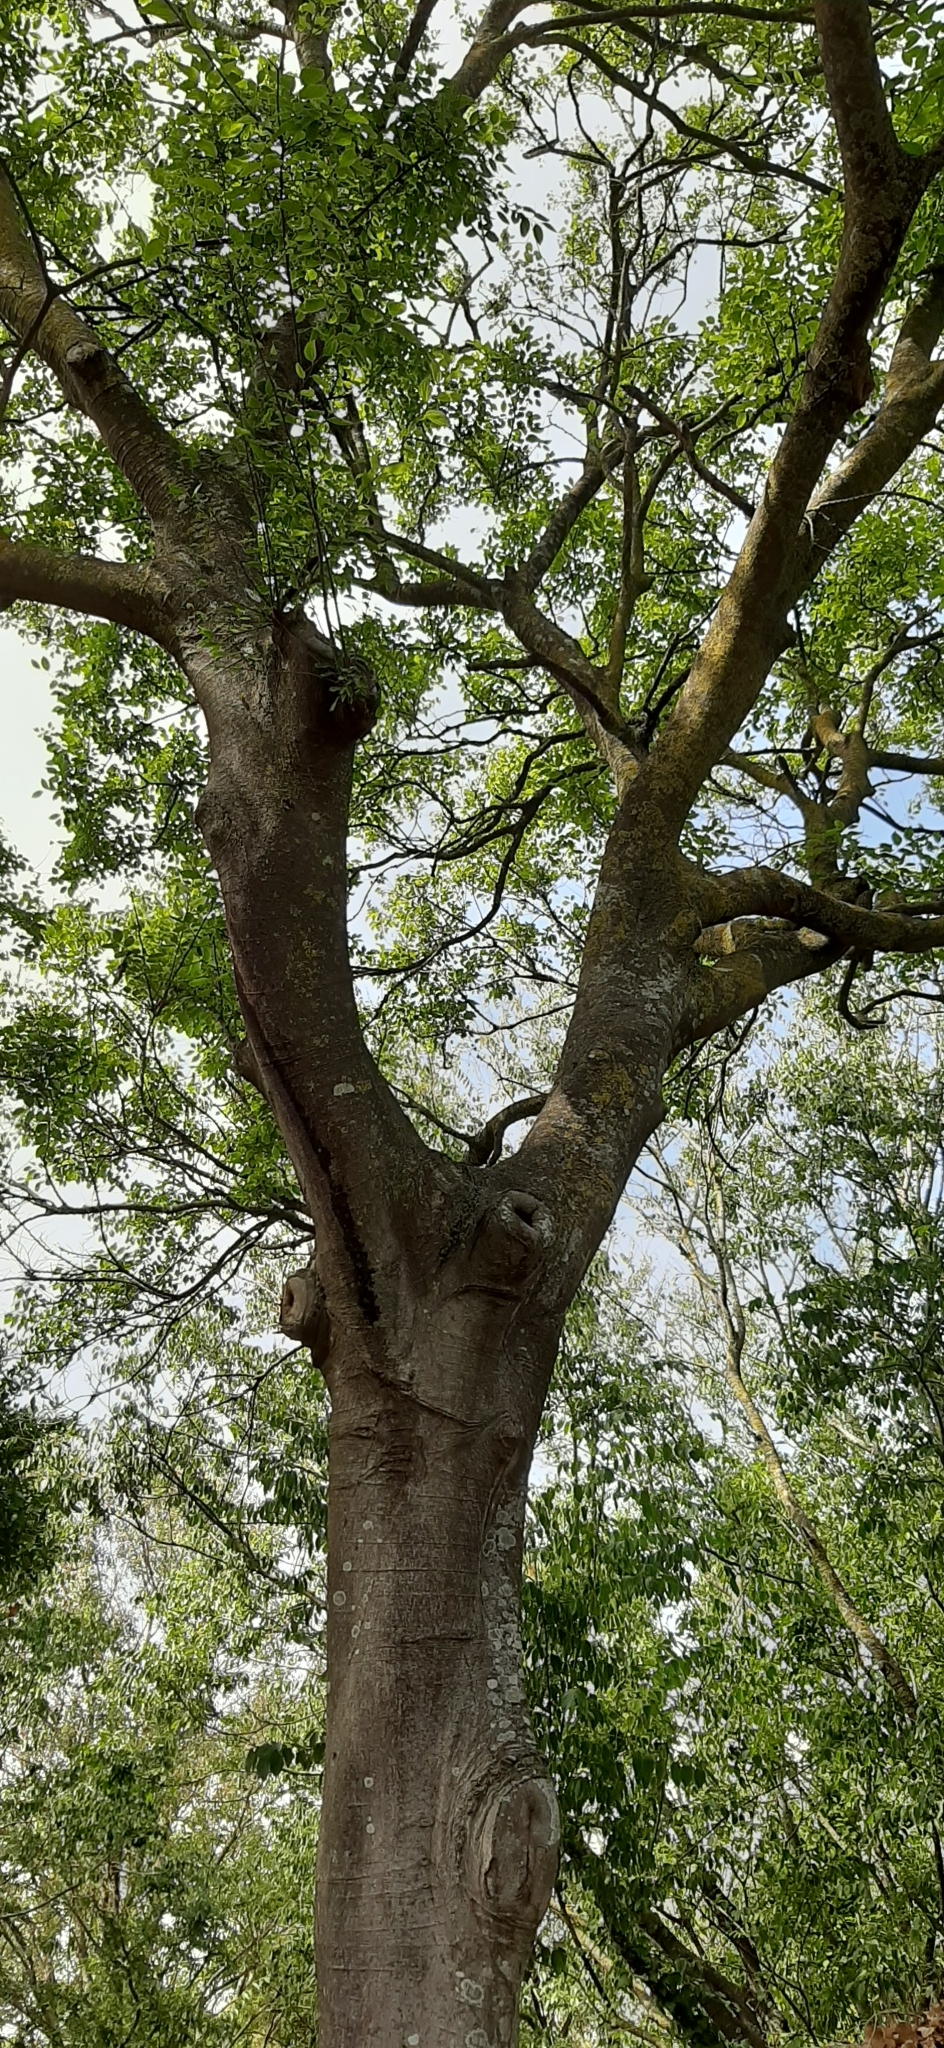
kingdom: Plantae
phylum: Tracheophyta
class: Magnoliopsida
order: Rosales
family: Cannabaceae
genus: Celtis
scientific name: Celtis australis
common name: European hackberry
